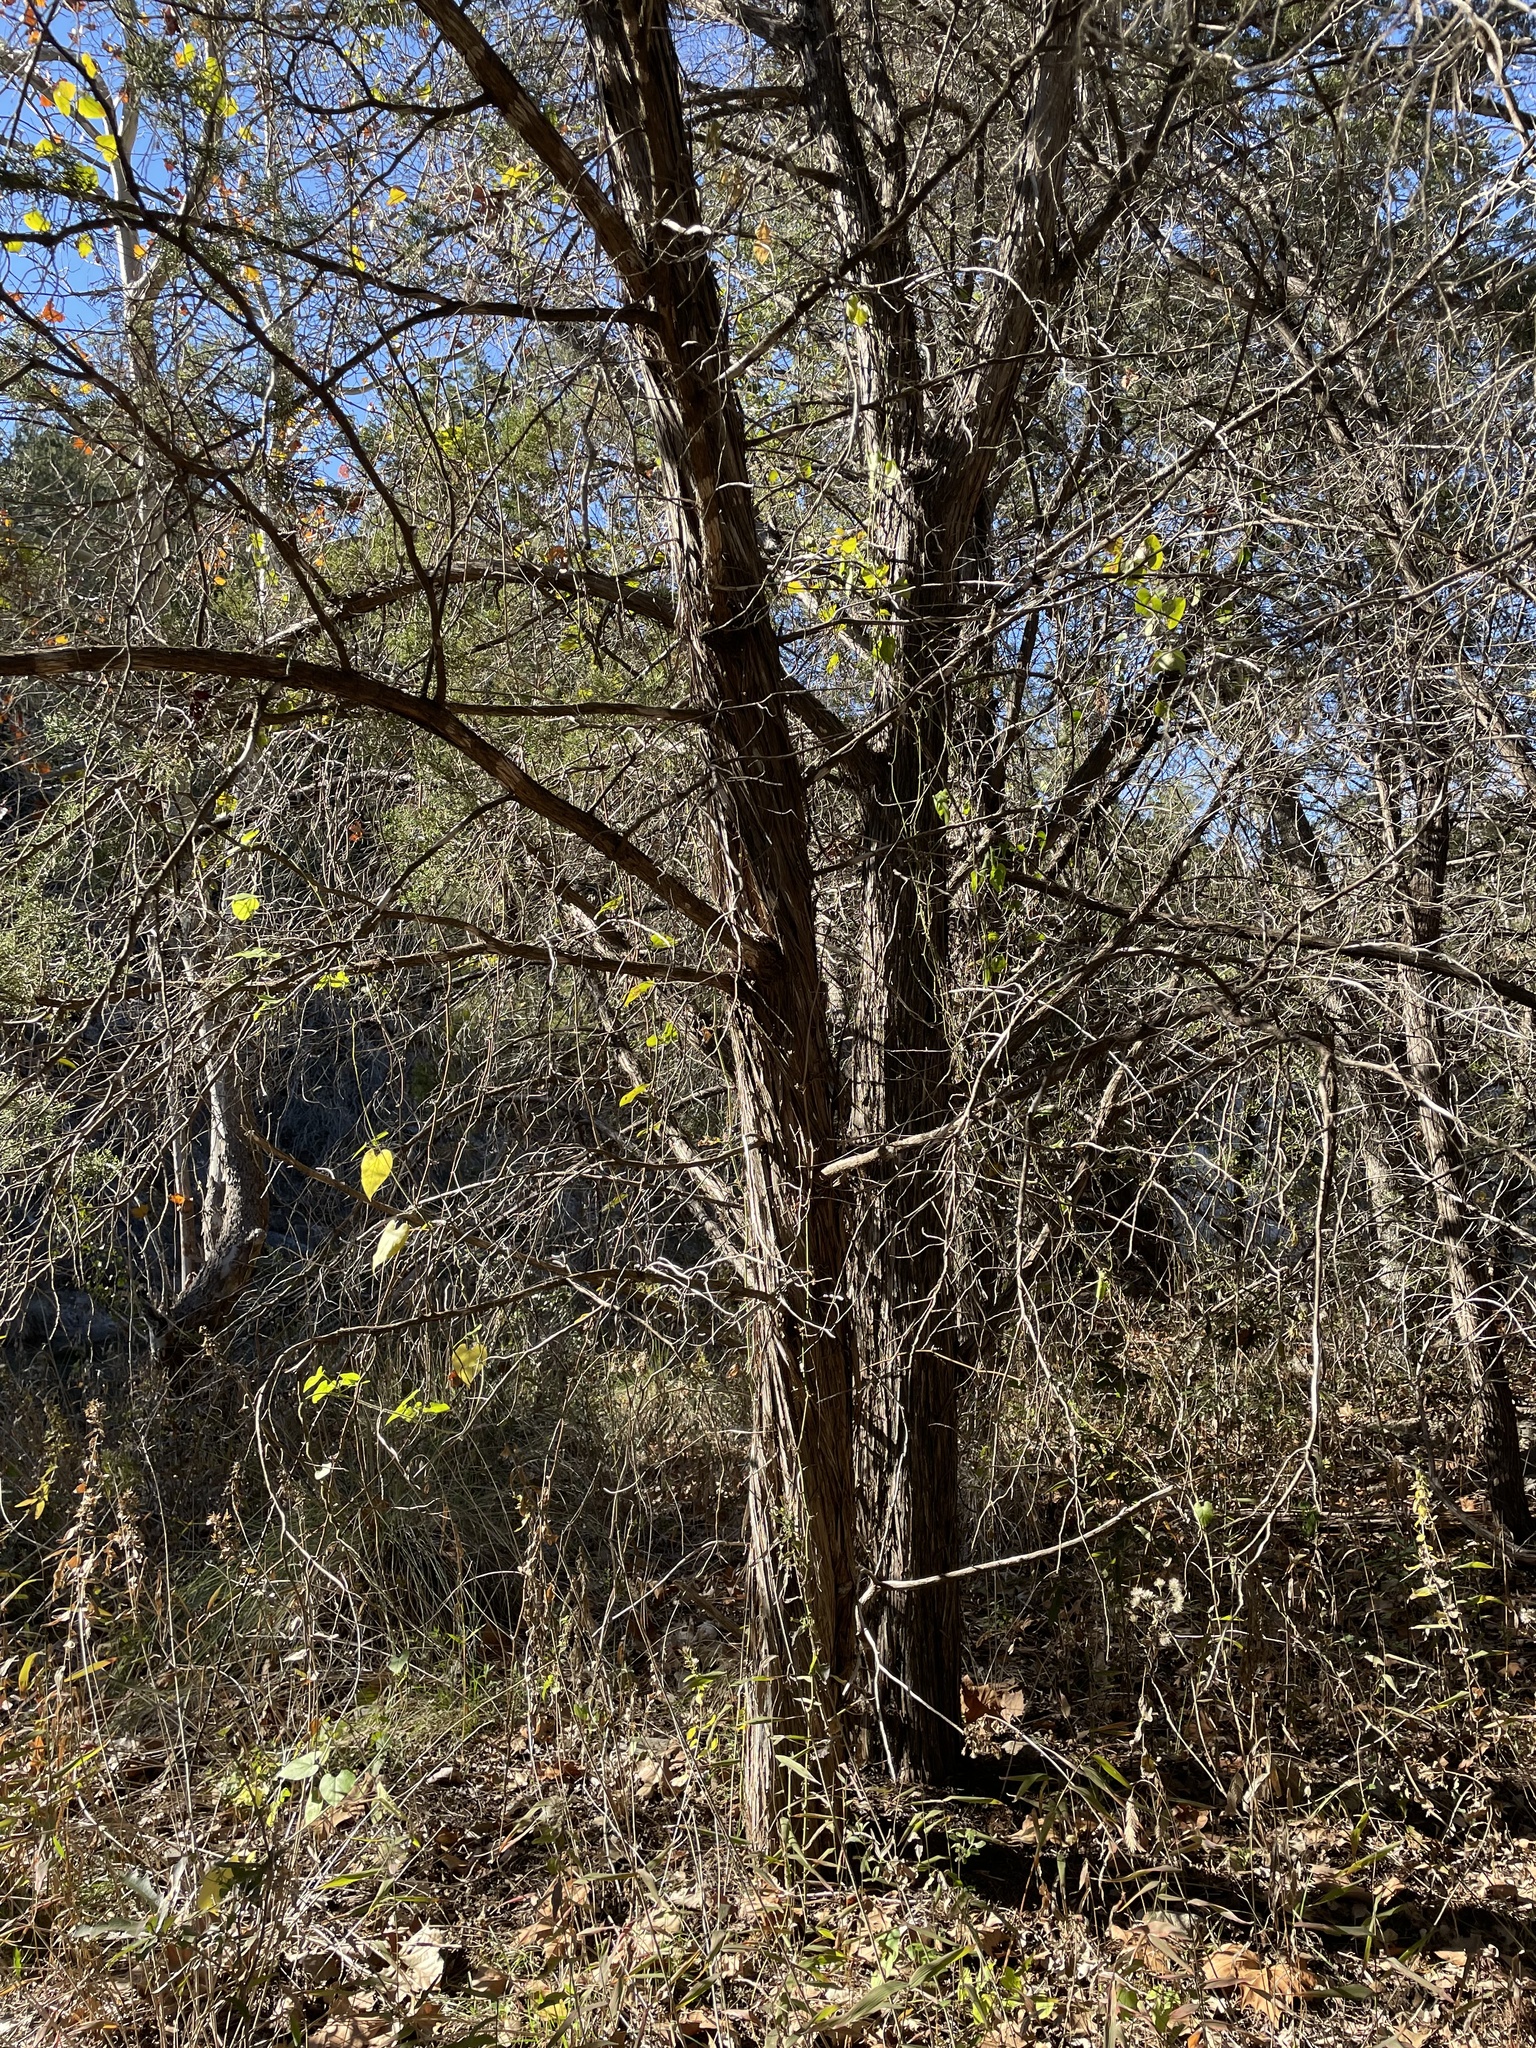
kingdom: Plantae
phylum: Tracheophyta
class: Pinopsida
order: Pinales
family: Cupressaceae
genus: Juniperus
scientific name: Juniperus ashei
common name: Mexican juniper
